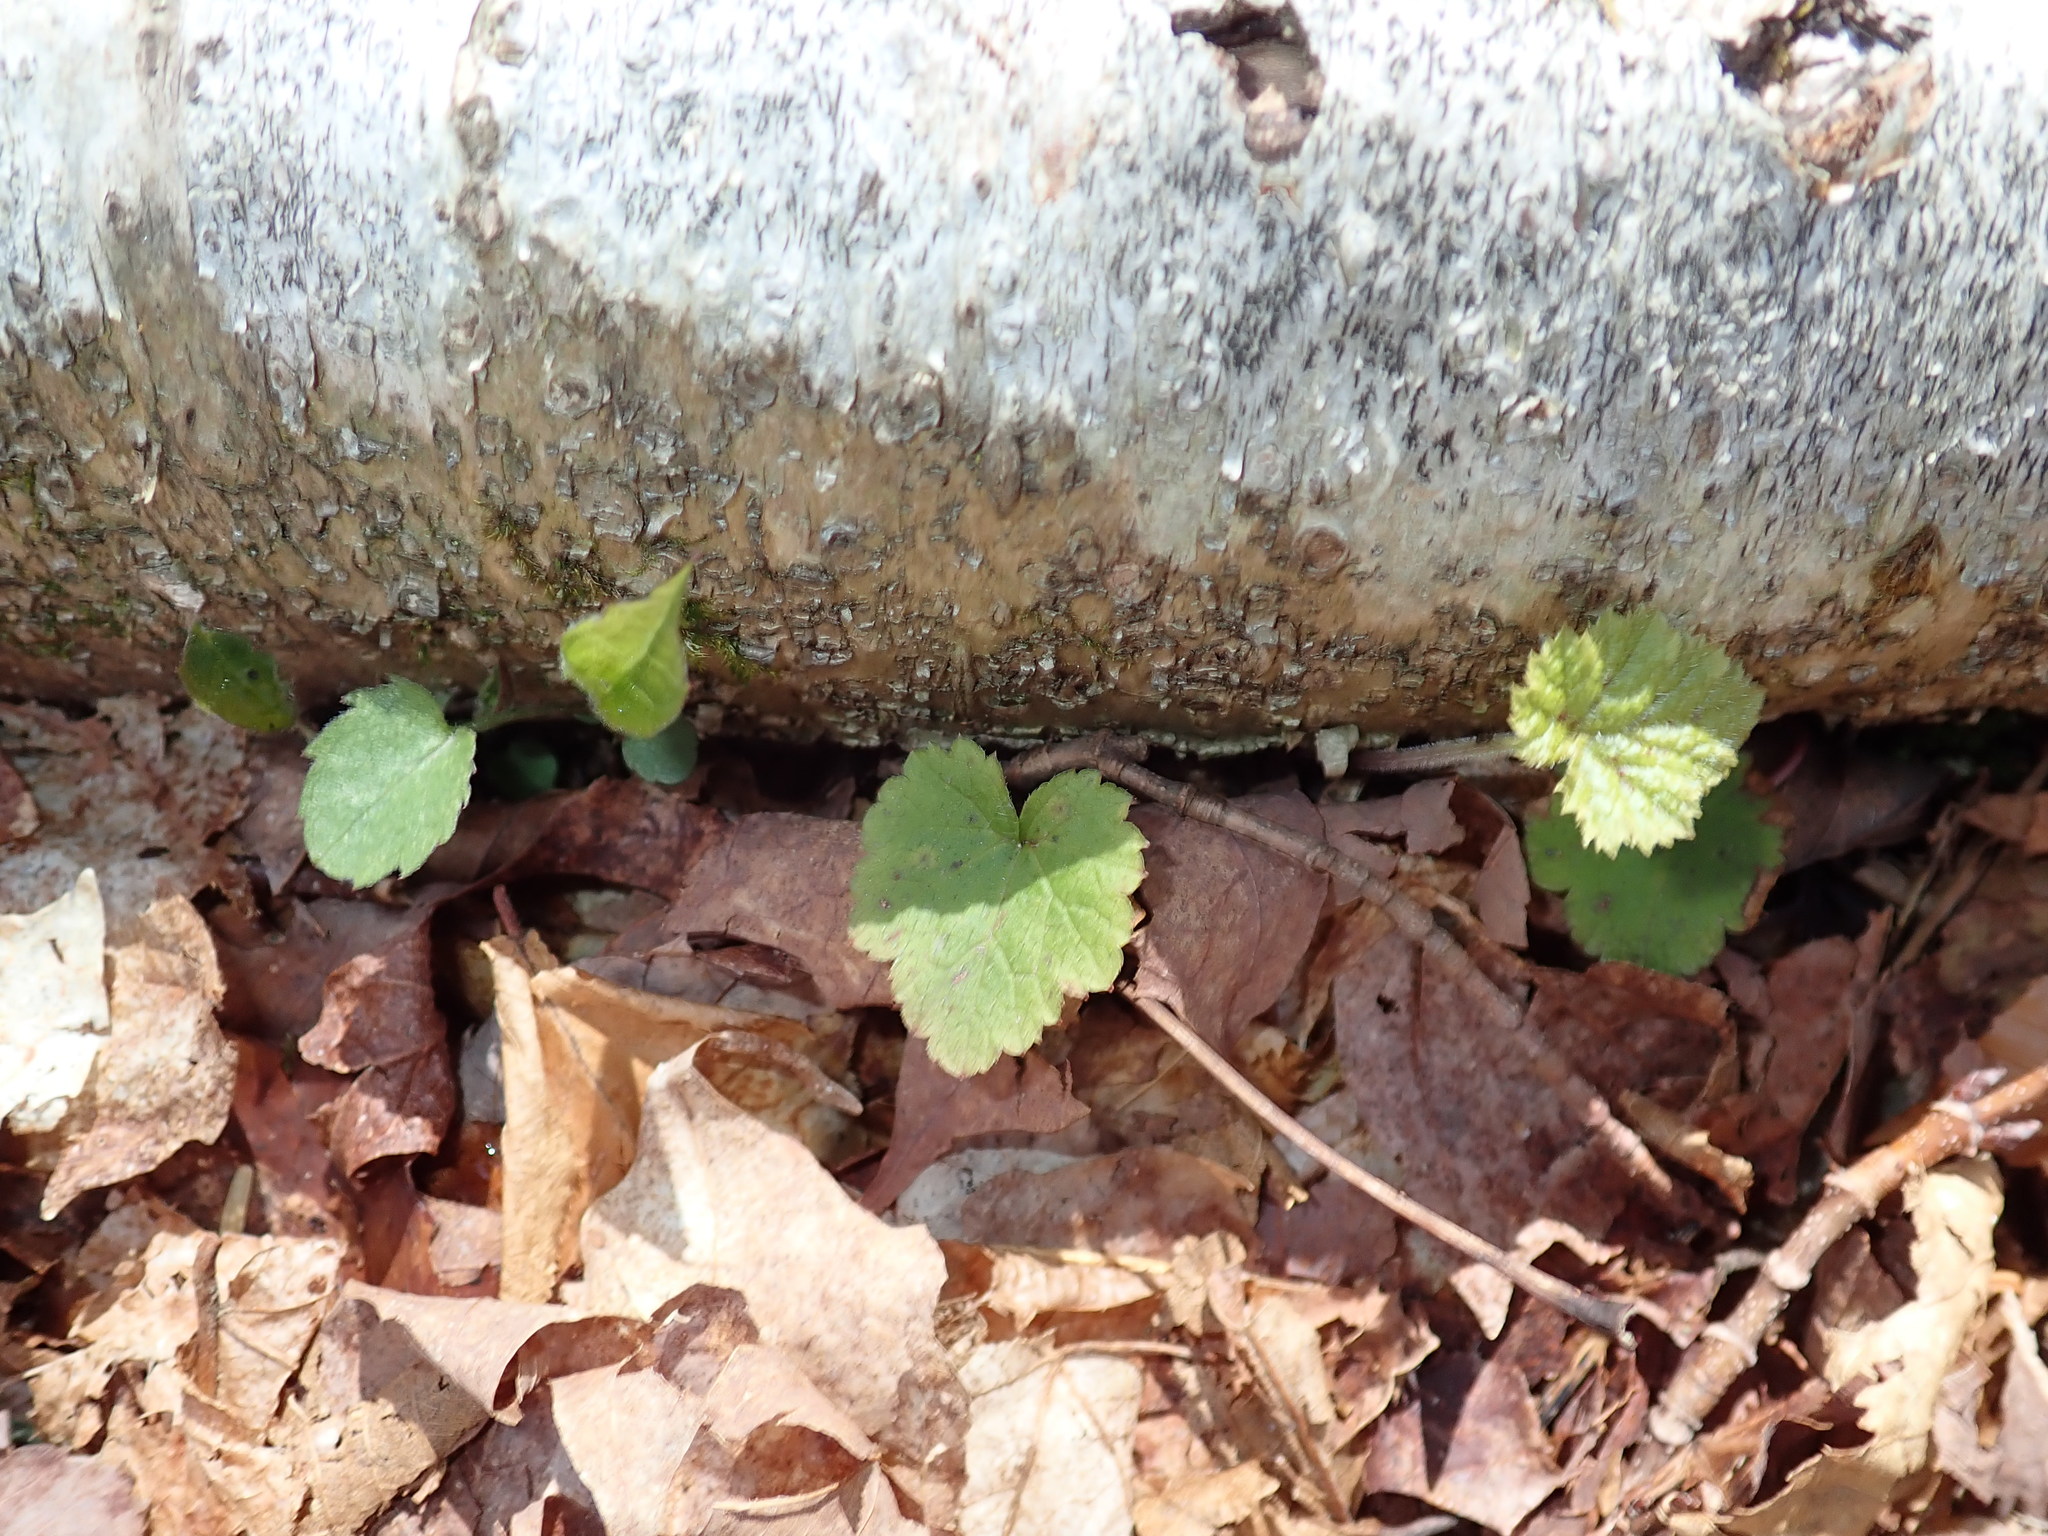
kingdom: Plantae
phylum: Tracheophyta
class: Magnoliopsida
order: Saxifragales
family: Saxifragaceae
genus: Tiarella
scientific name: Tiarella stolonifera
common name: Stoloniferous foamflower
